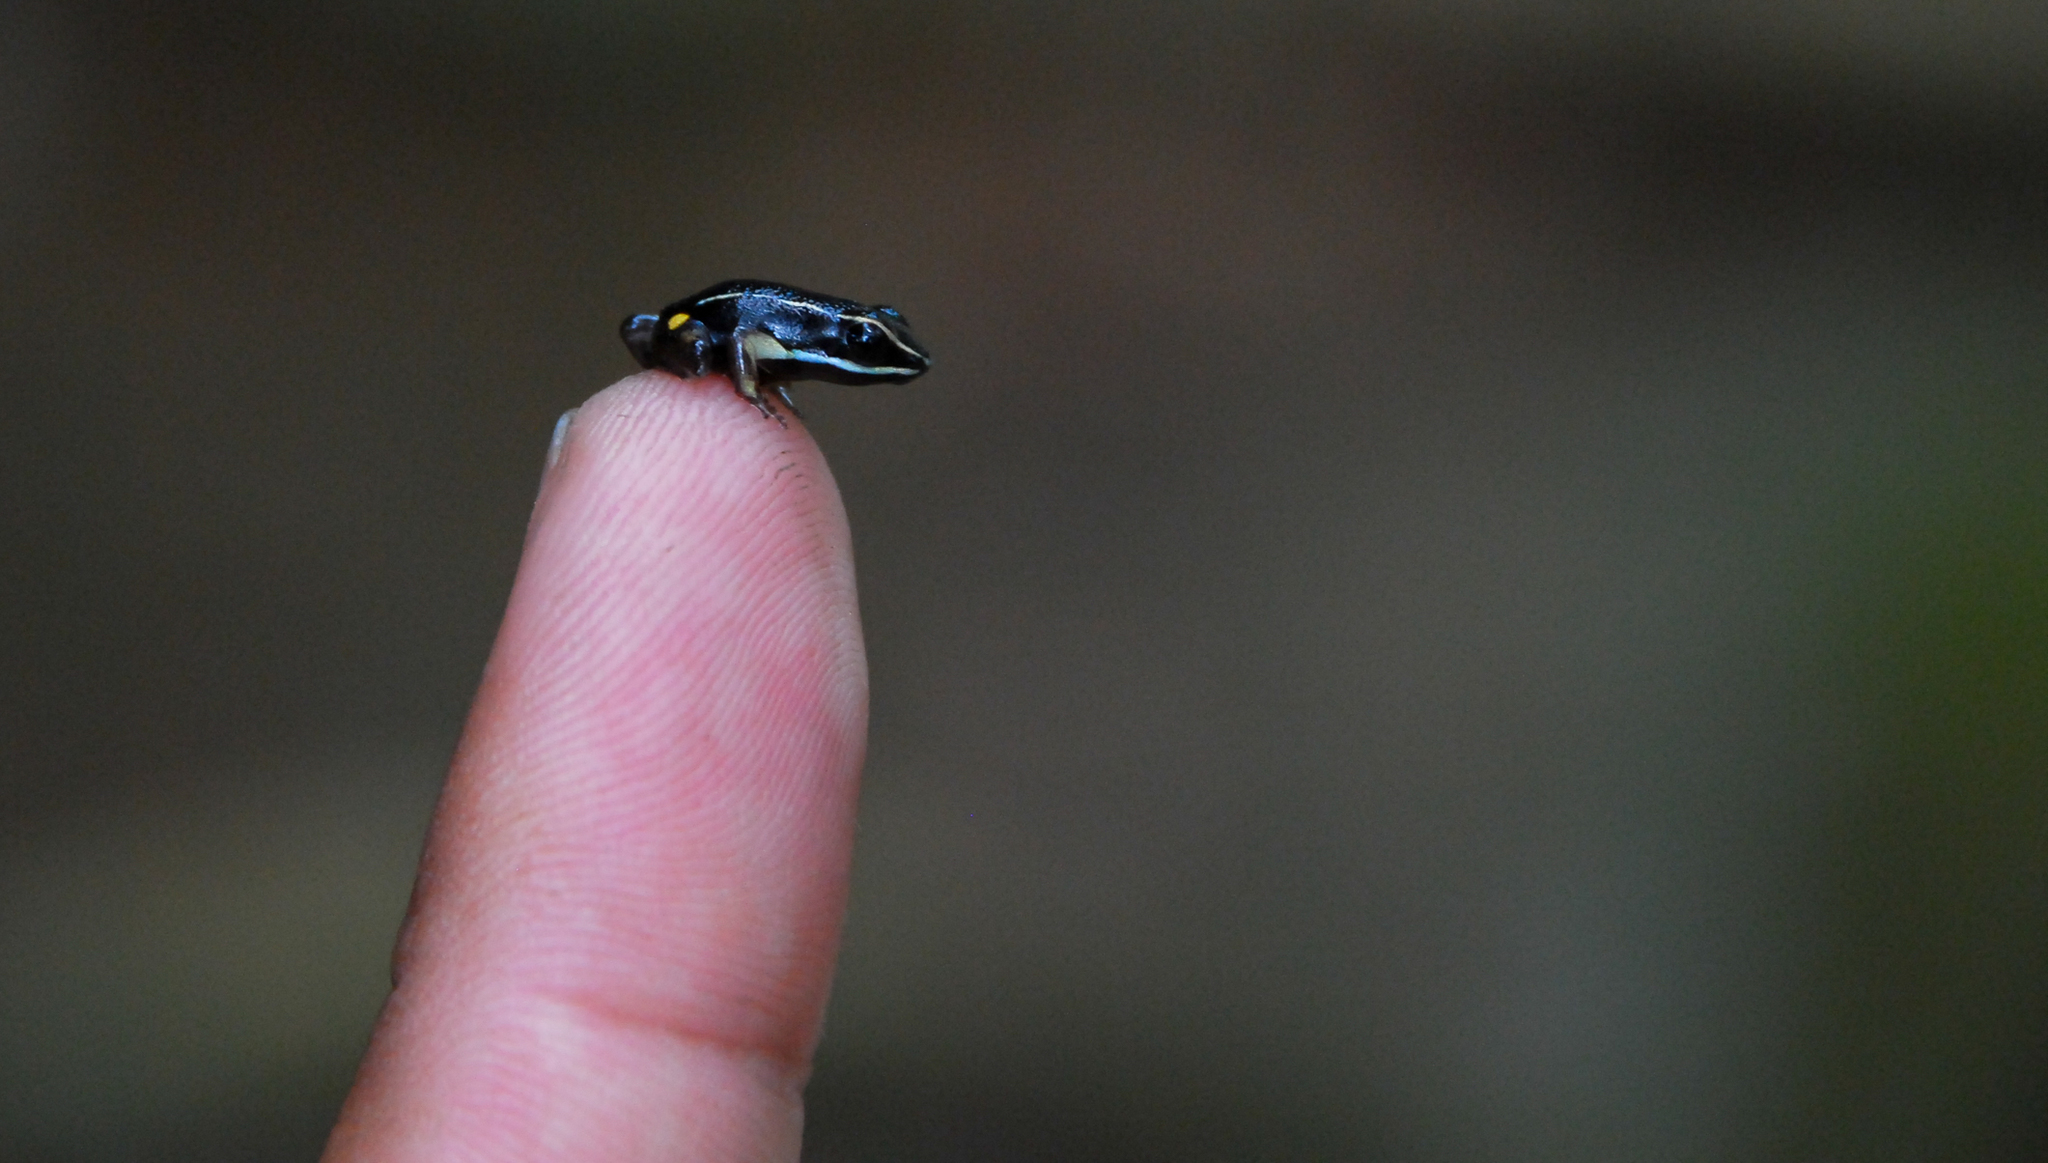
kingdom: Animalia
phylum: Chordata
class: Amphibia
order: Anura
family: Aromobatidae
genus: Allobates
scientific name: Allobates femoralis
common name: Brilliant-thighed poison frog
